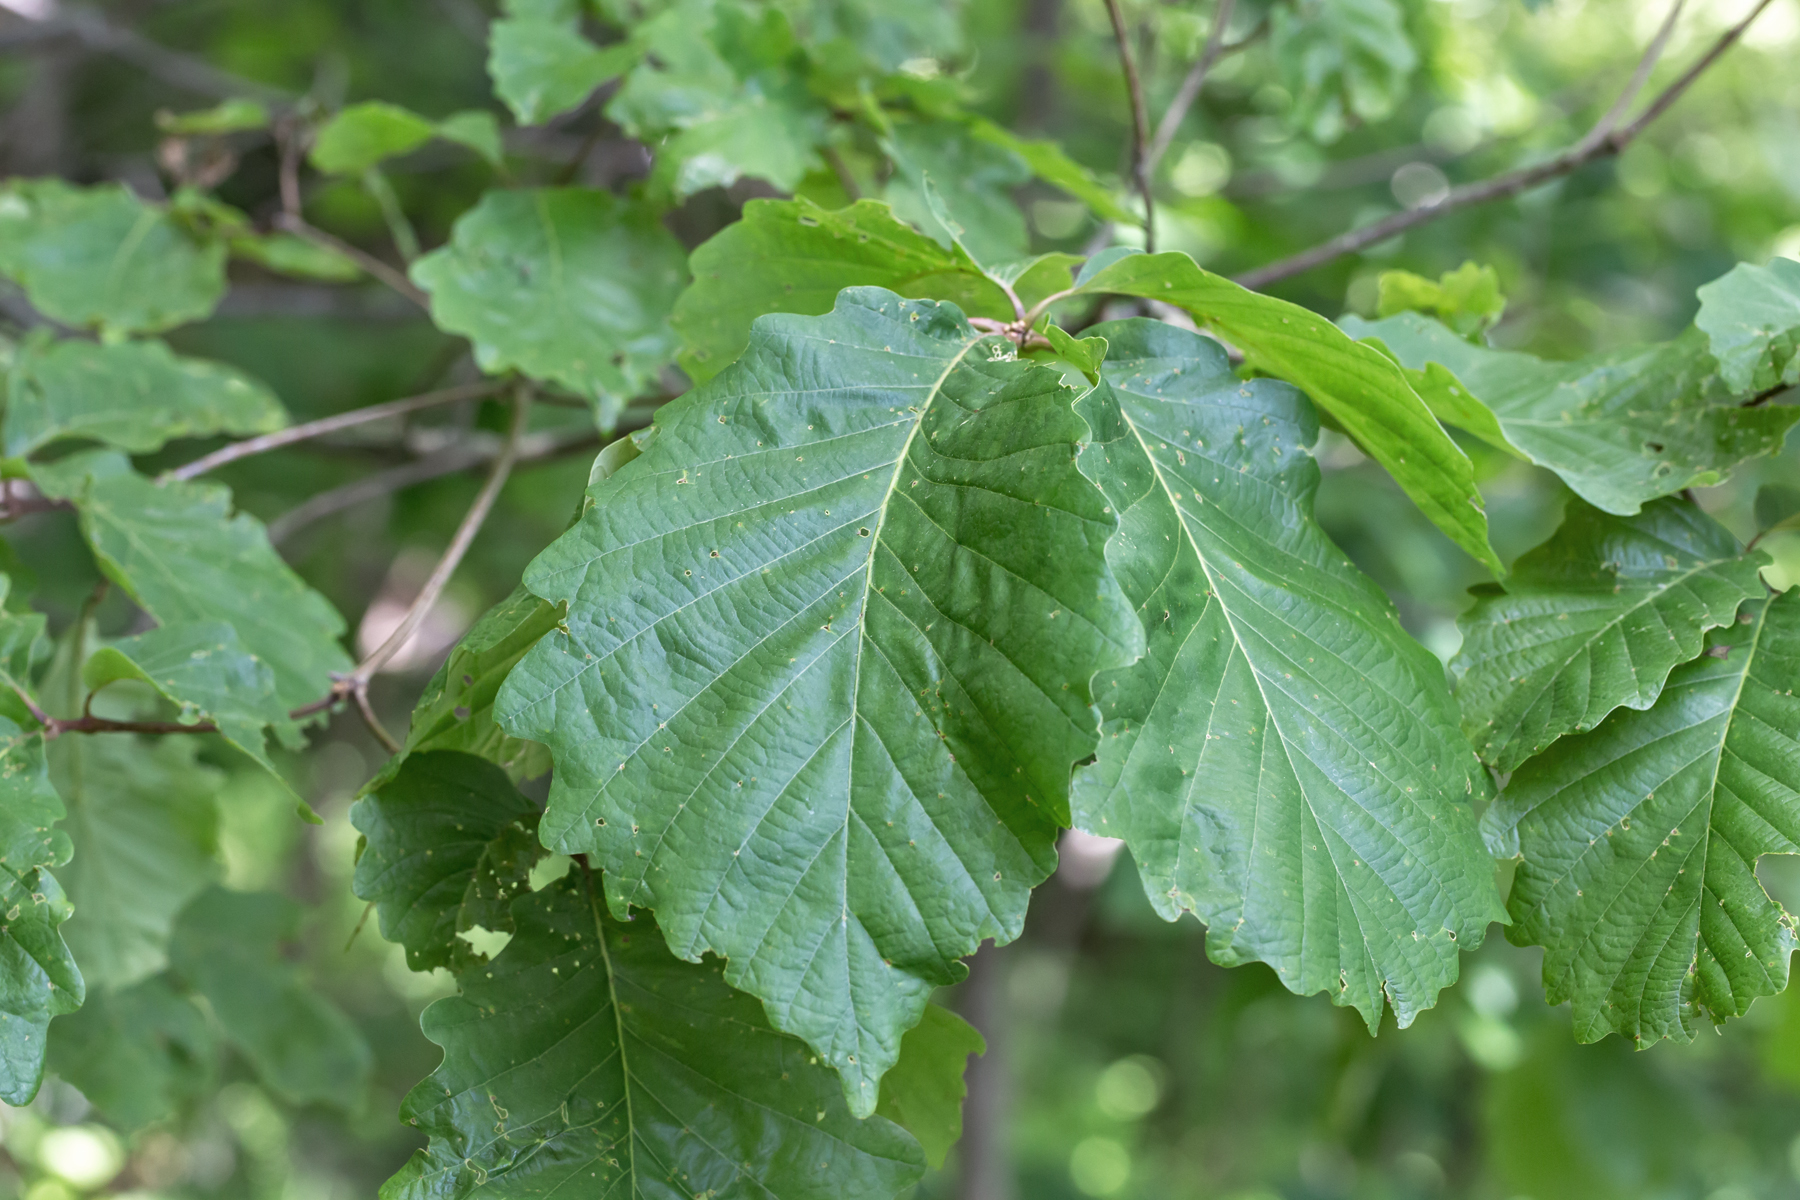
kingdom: Plantae
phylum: Tracheophyta
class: Magnoliopsida
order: Fagales
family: Fagaceae
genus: Quercus
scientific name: Quercus montana
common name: Chestnut oak
